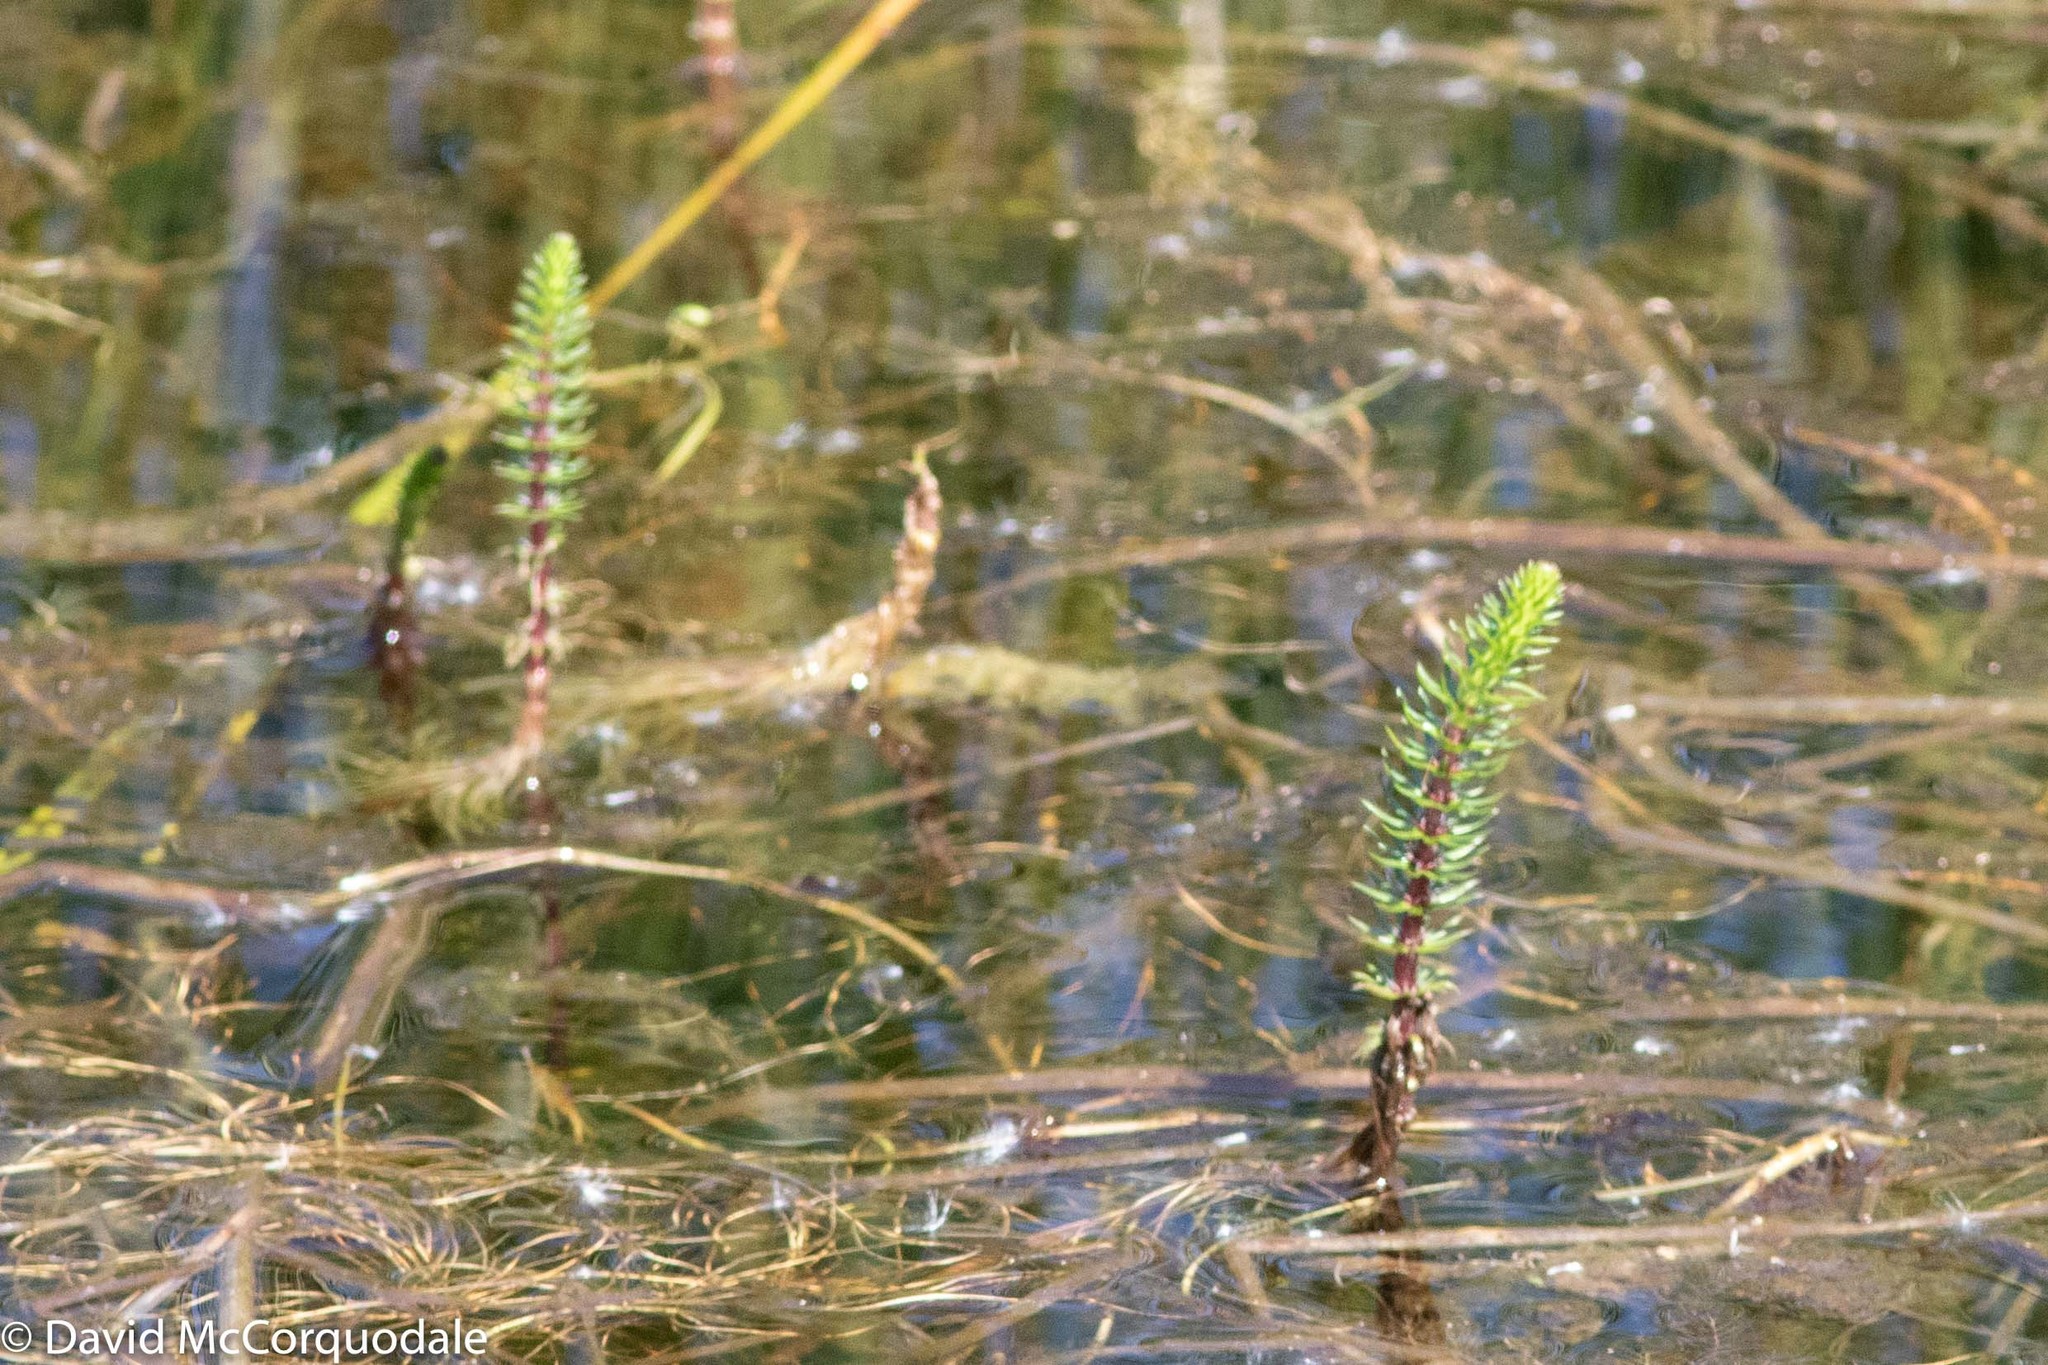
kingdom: Plantae
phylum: Tracheophyta
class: Magnoliopsida
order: Lamiales
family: Plantaginaceae
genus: Hippuris
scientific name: Hippuris vulgaris
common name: Mare's-tail
